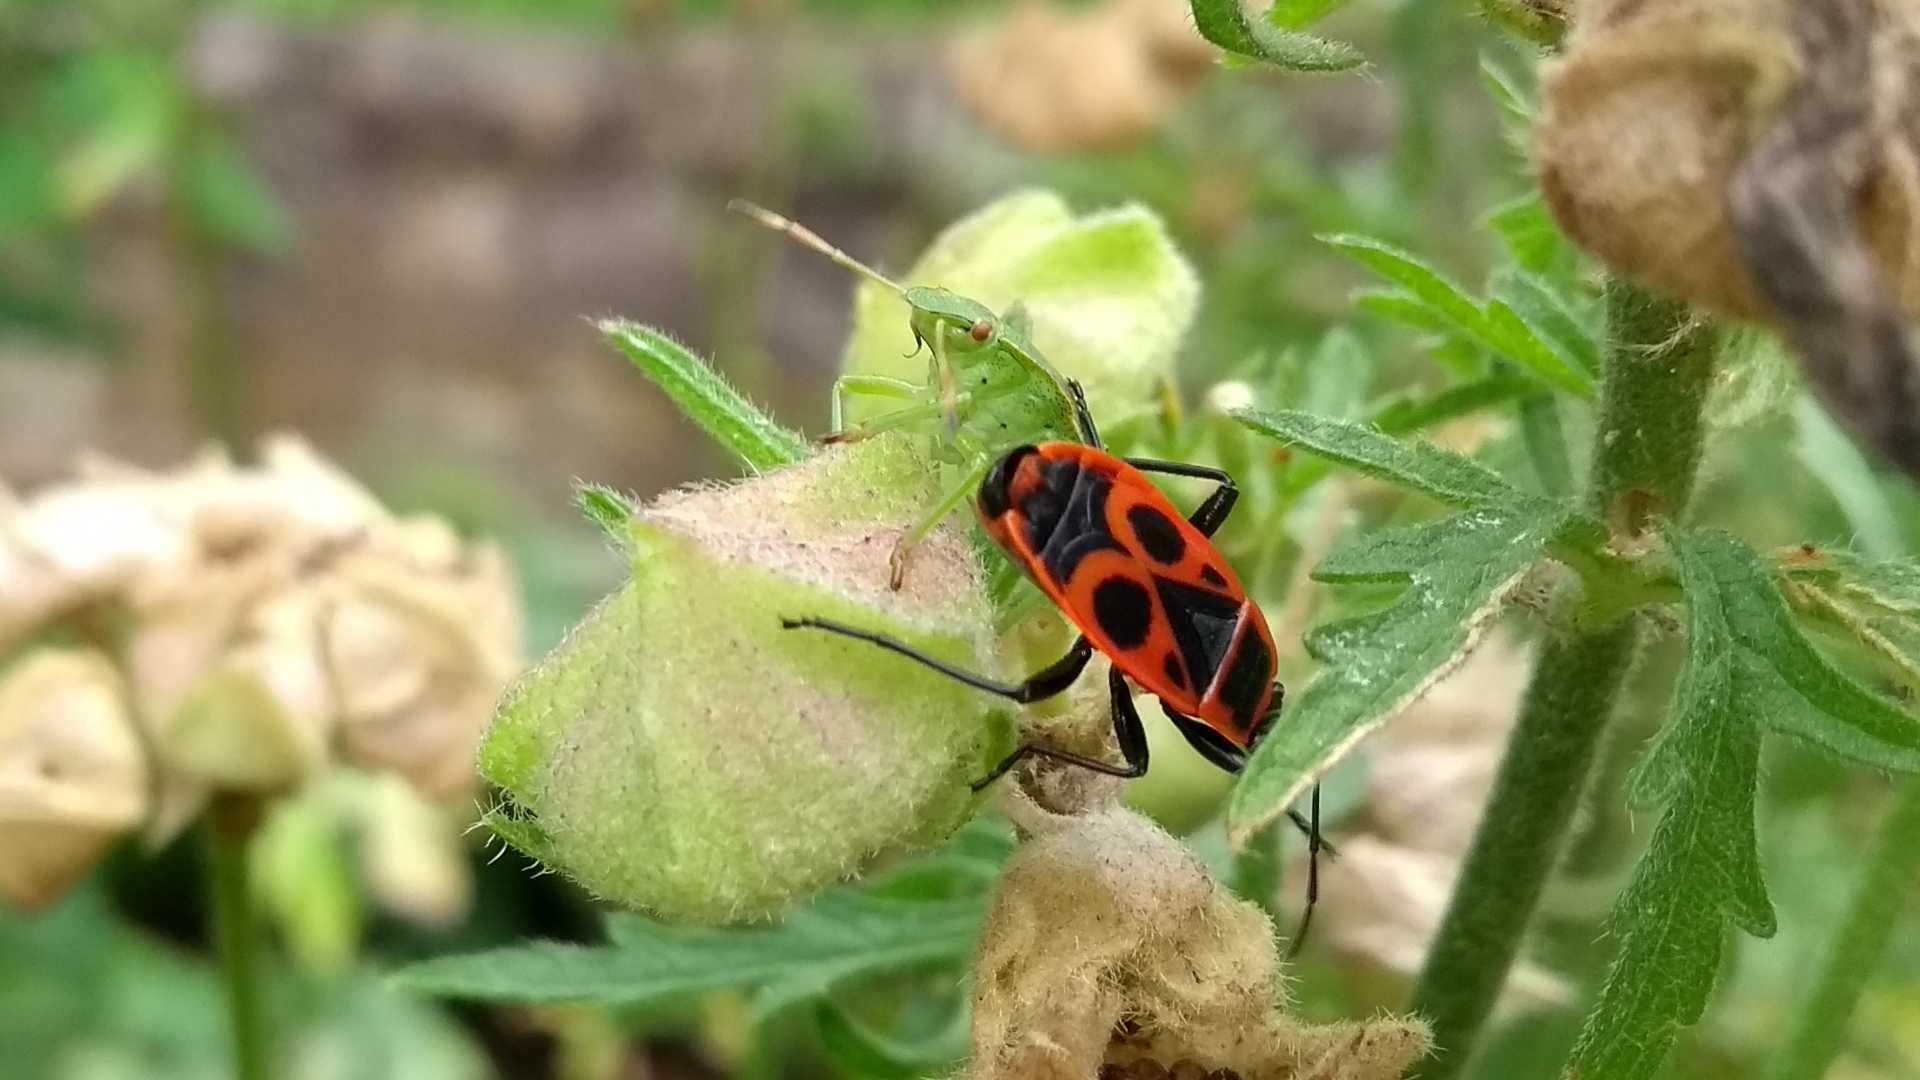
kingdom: Animalia
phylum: Arthropoda
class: Insecta
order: Hemiptera
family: Pentatomidae
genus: Palomena
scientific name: Palomena prasina
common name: Green shieldbug
